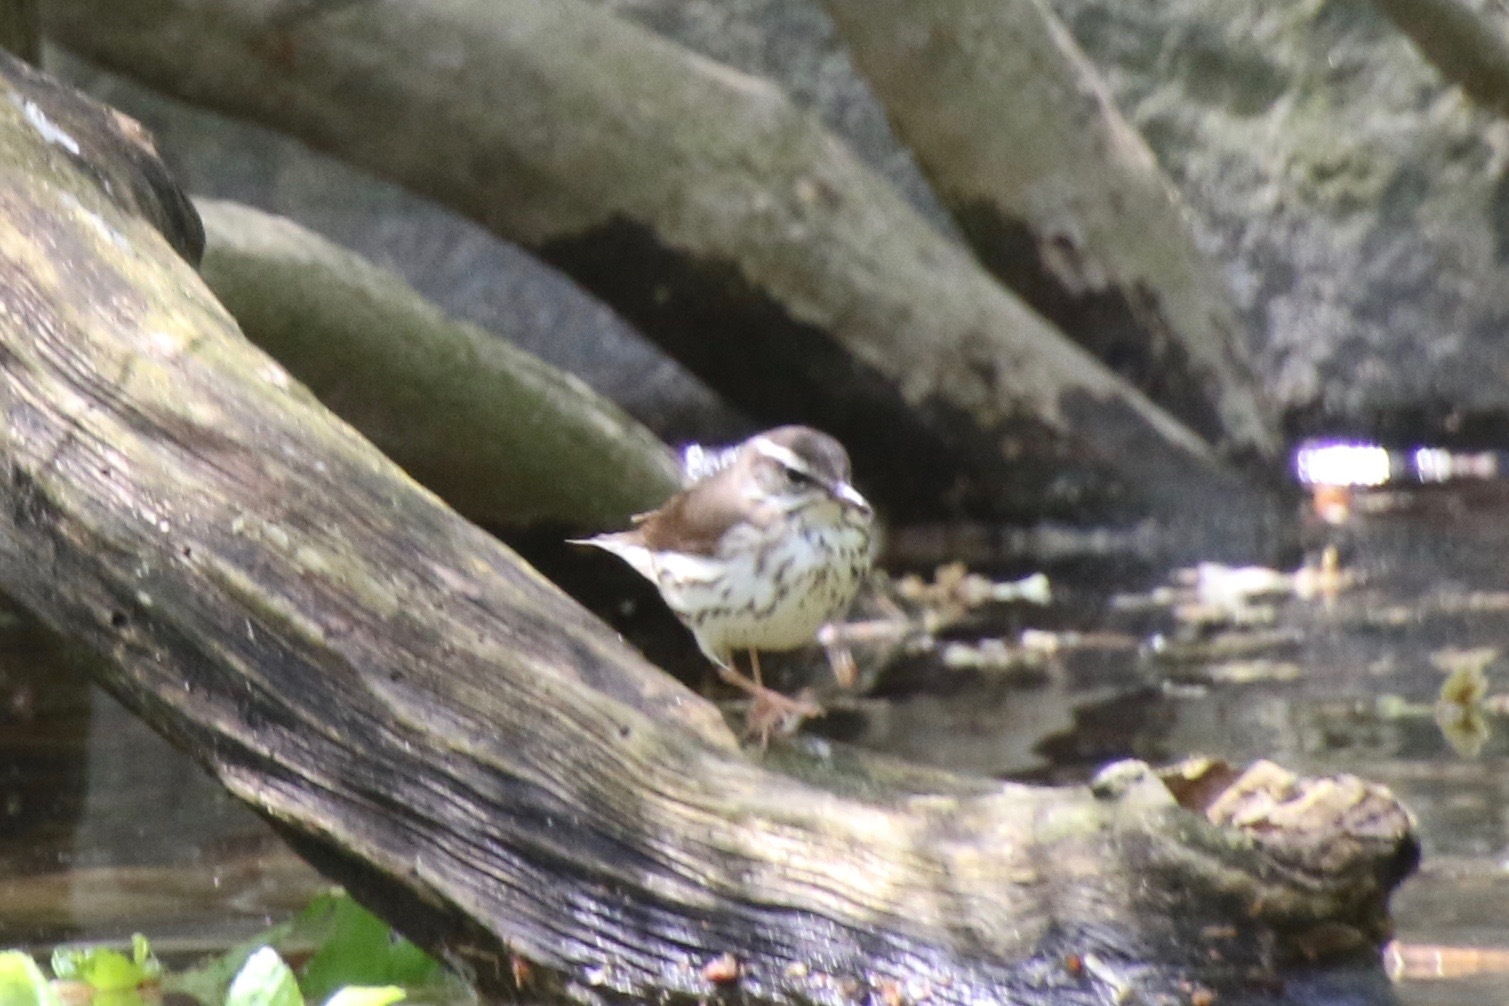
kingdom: Animalia
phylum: Chordata
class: Aves
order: Passeriformes
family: Parulidae
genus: Parkesia
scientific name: Parkesia motacilla
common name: Louisiana waterthrush
